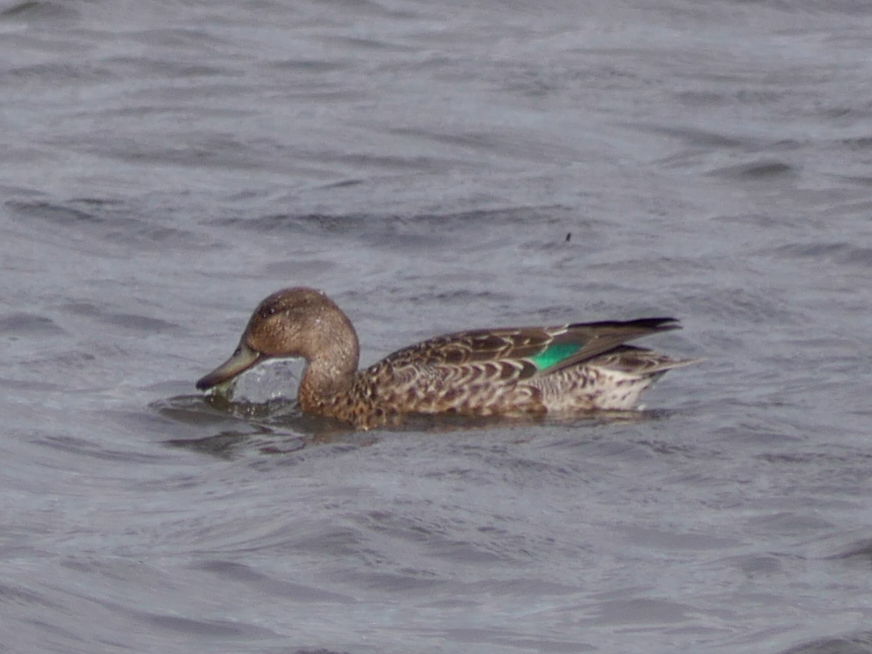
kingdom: Animalia
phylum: Chordata
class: Aves
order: Anseriformes
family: Anatidae
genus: Anas
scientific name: Anas crecca
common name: Eurasian teal
